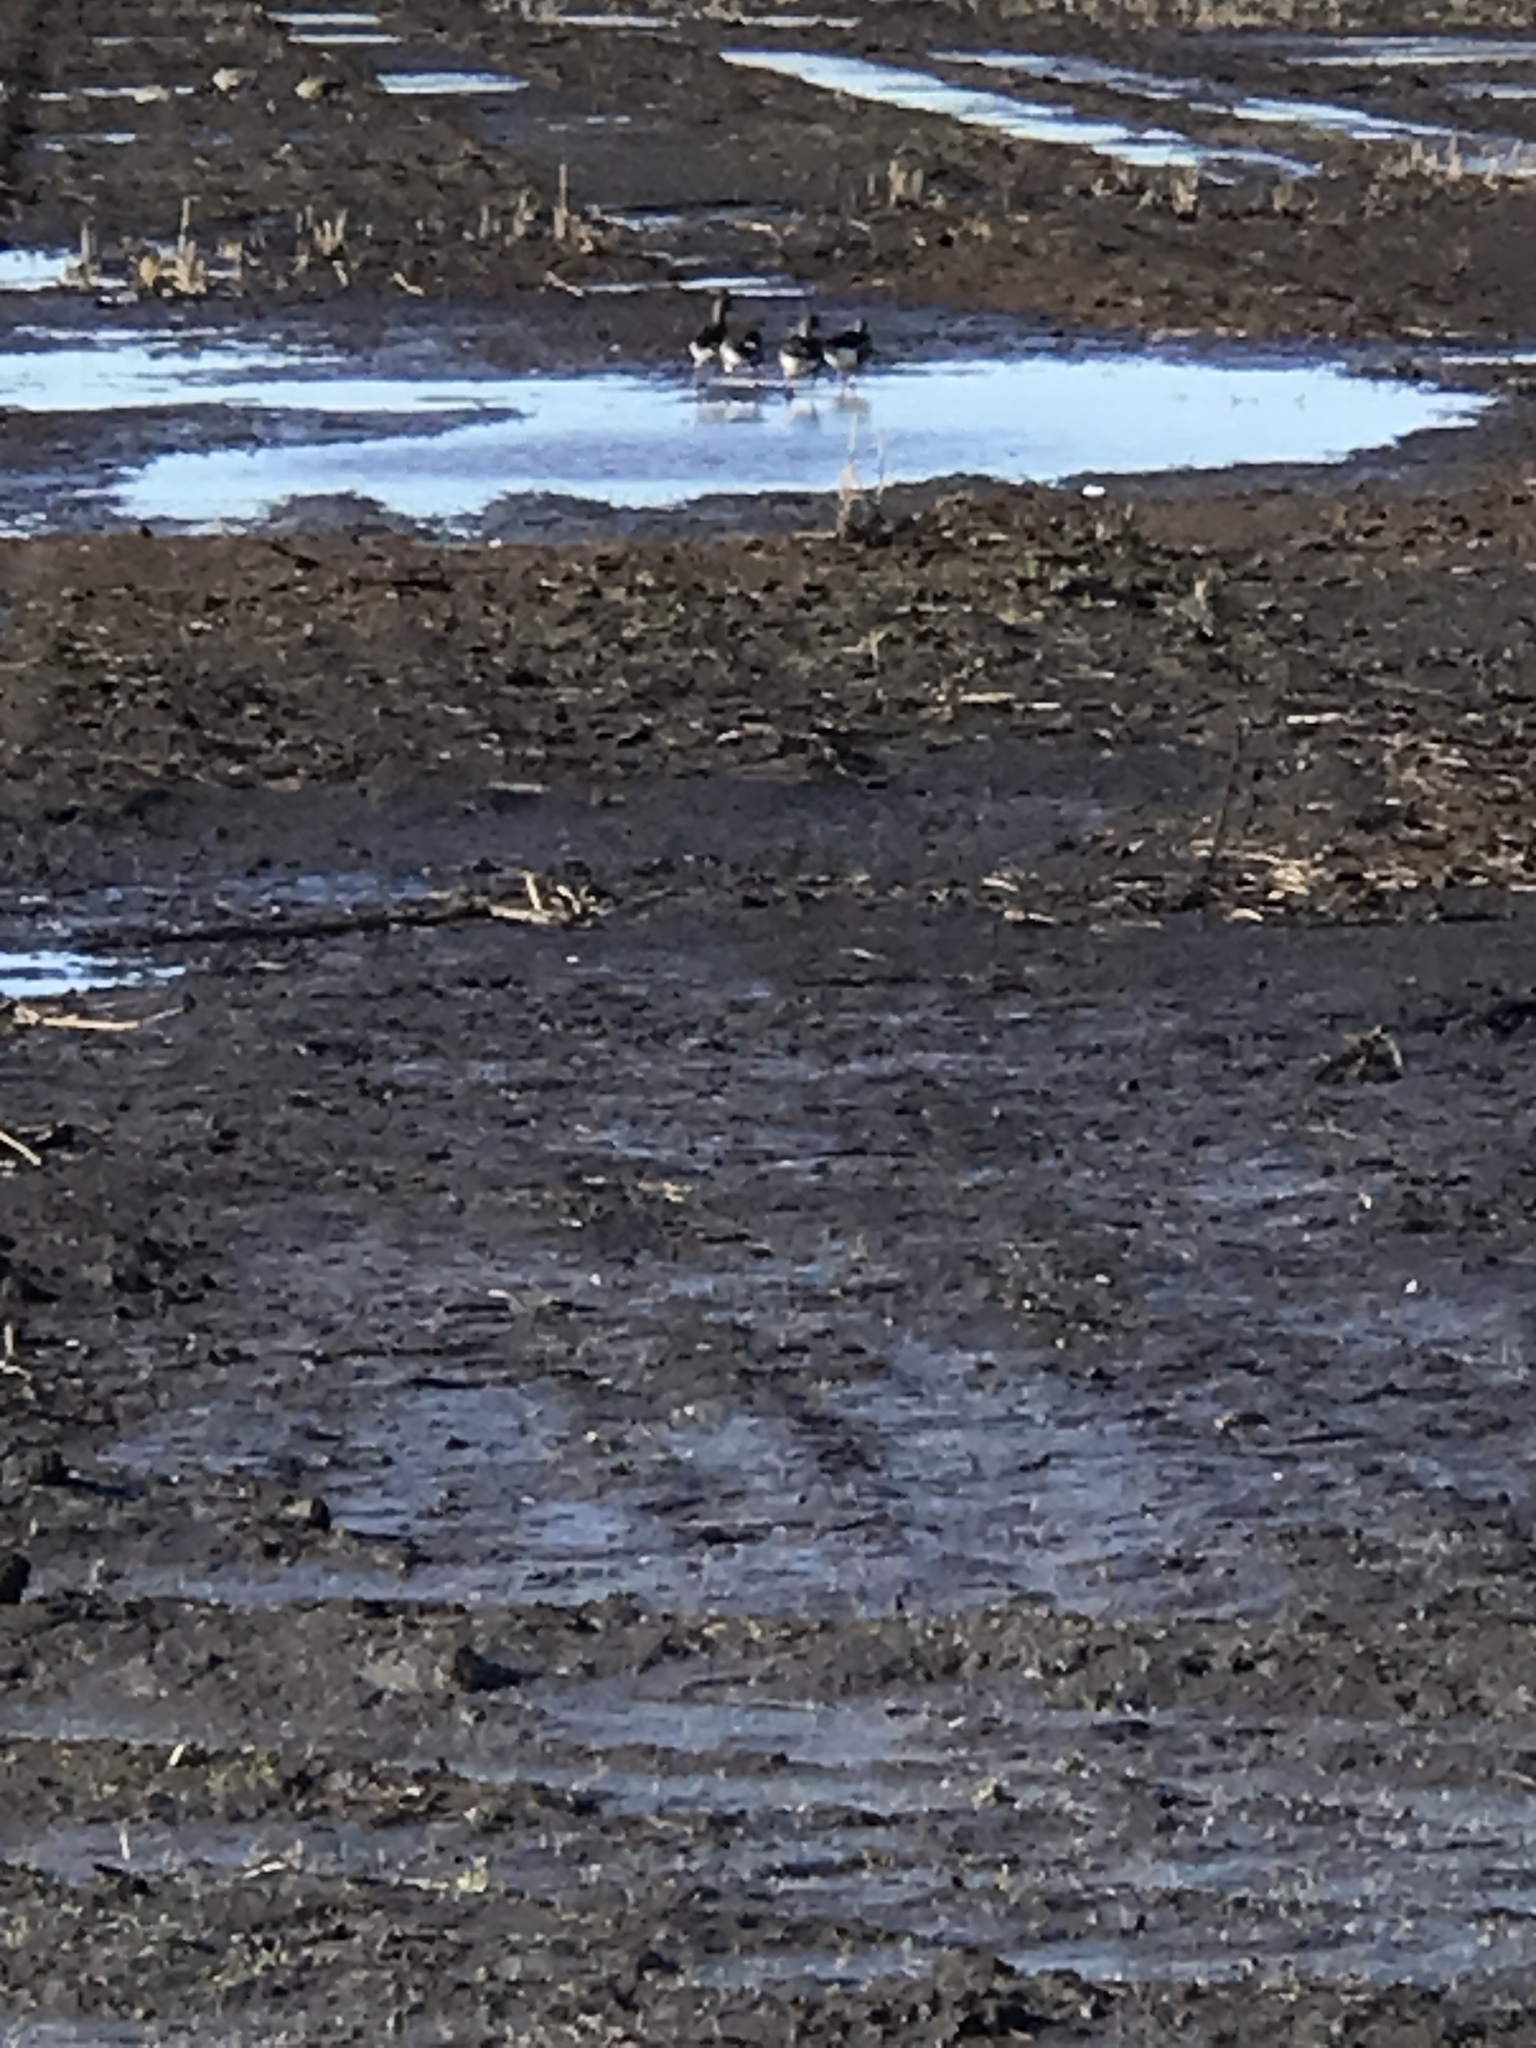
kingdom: Animalia
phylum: Chordata
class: Aves
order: Anseriformes
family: Anatidae
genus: Anser
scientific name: Anser albifrons
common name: Greater white-fronted goose
